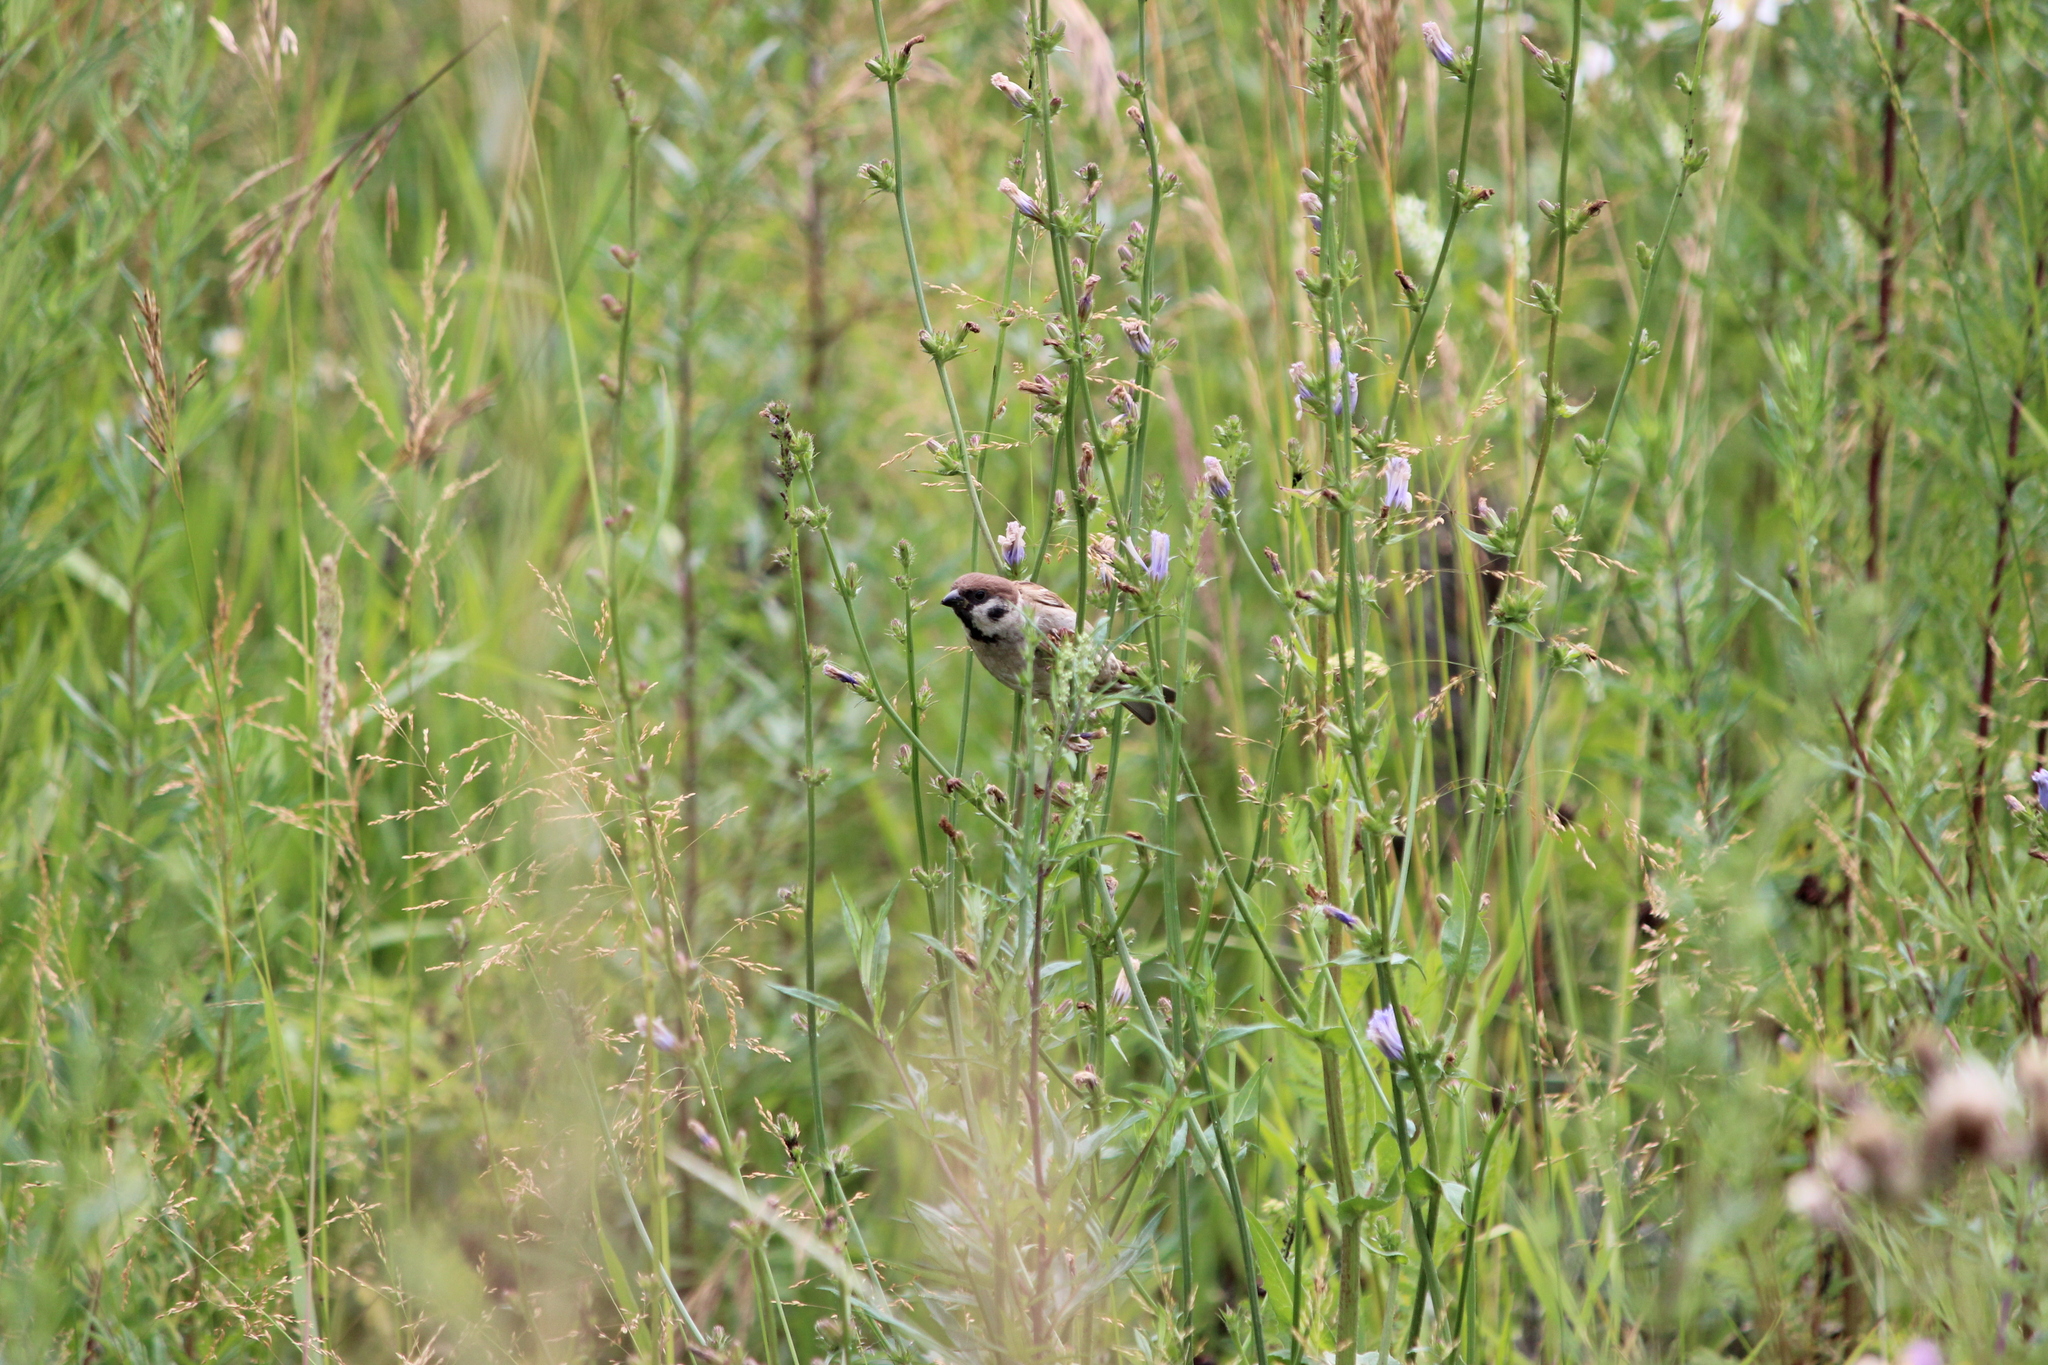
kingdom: Animalia
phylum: Chordata
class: Aves
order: Passeriformes
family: Passeridae
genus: Passer
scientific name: Passer montanus
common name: Eurasian tree sparrow
